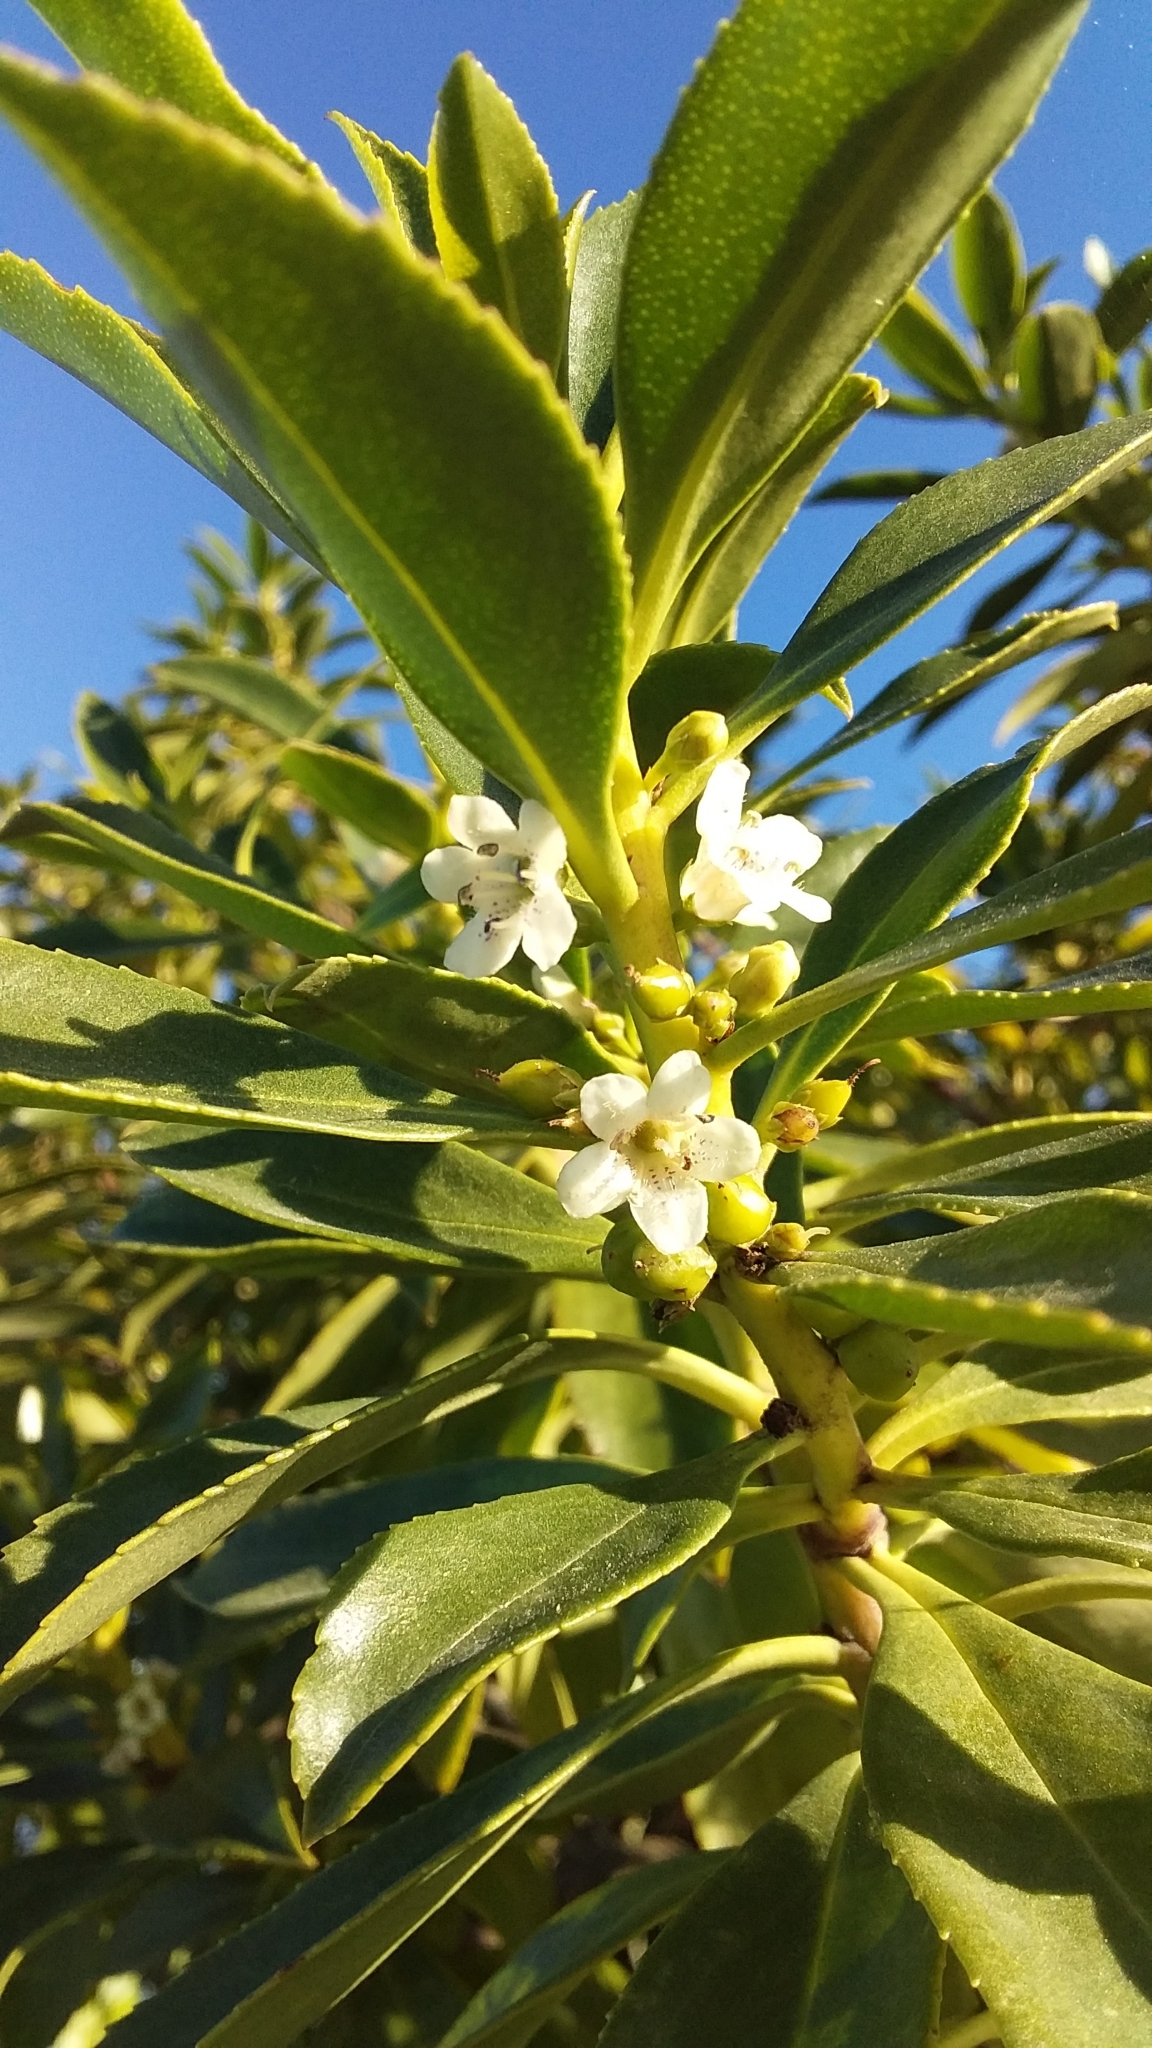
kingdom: Plantae
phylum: Tracheophyta
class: Magnoliopsida
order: Lamiales
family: Scrophulariaceae
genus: Myoporum
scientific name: Myoporum laetum
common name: Ngaio tree
